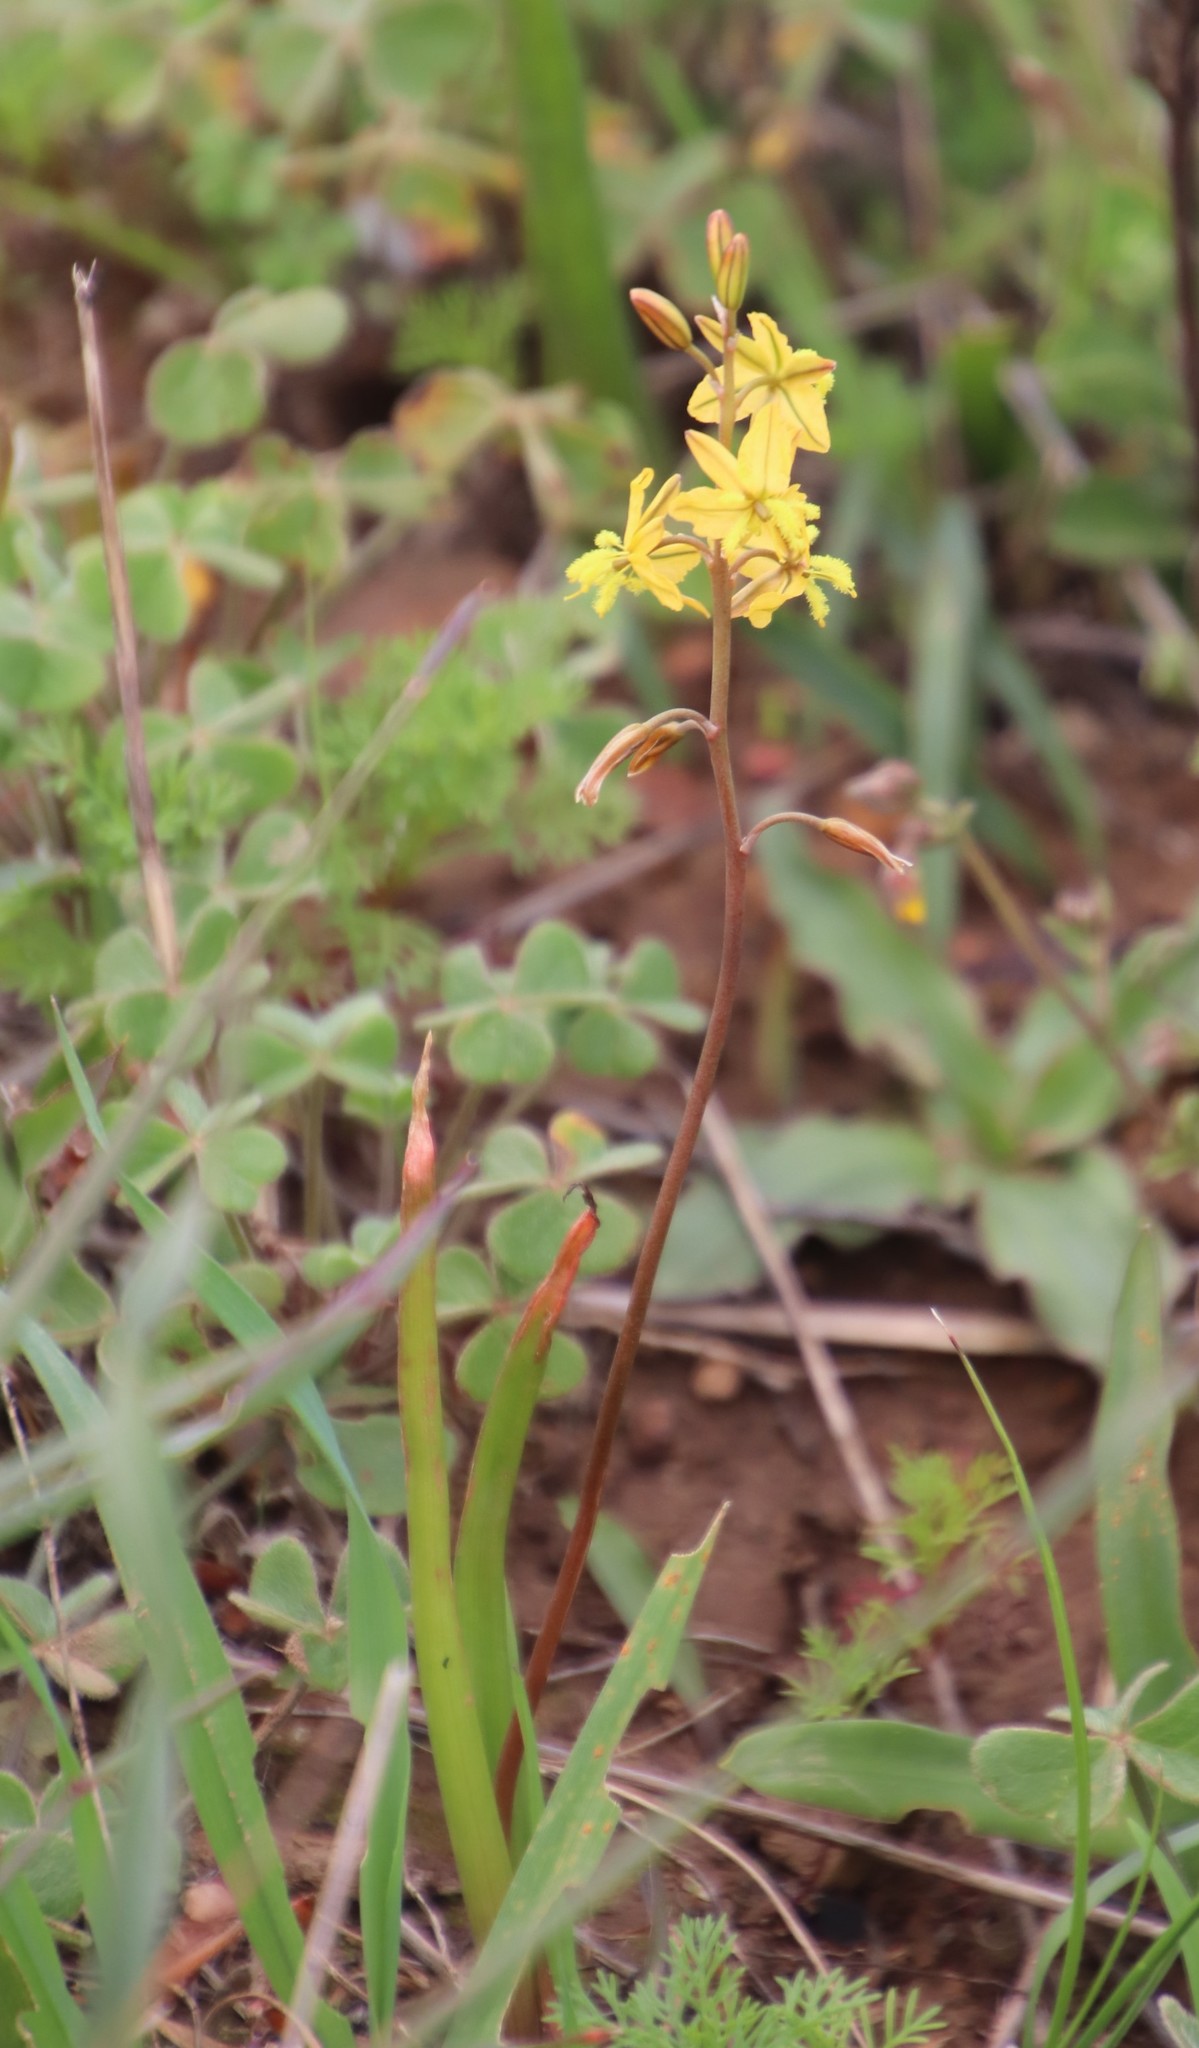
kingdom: Plantae
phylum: Tracheophyta
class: Liliopsida
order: Asparagales
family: Asphodelaceae
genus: Bulbine
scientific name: Bulbine praemorsa
